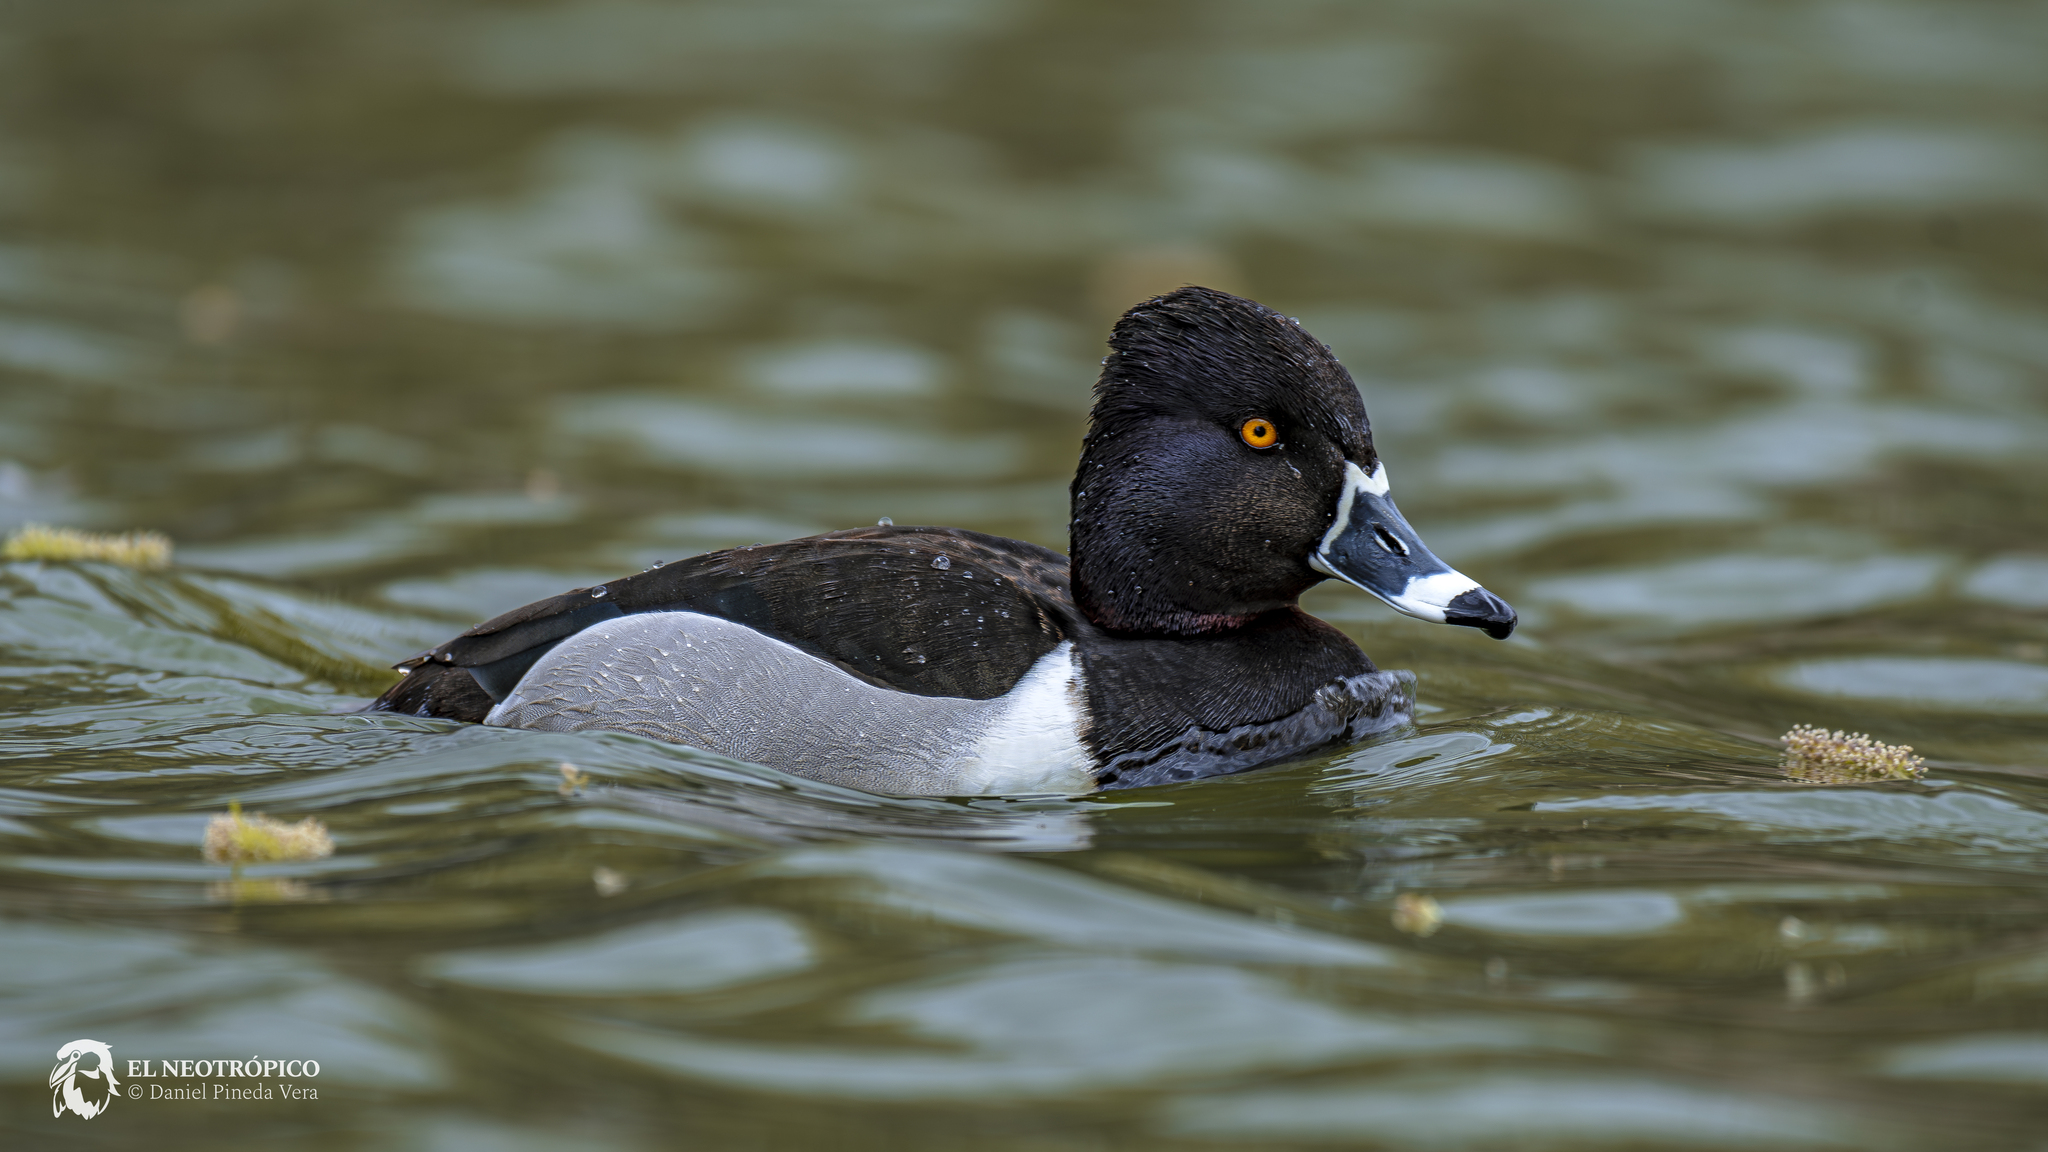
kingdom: Animalia
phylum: Chordata
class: Aves
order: Anseriformes
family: Anatidae
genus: Aythya
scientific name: Aythya collaris
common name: Ring-necked duck
